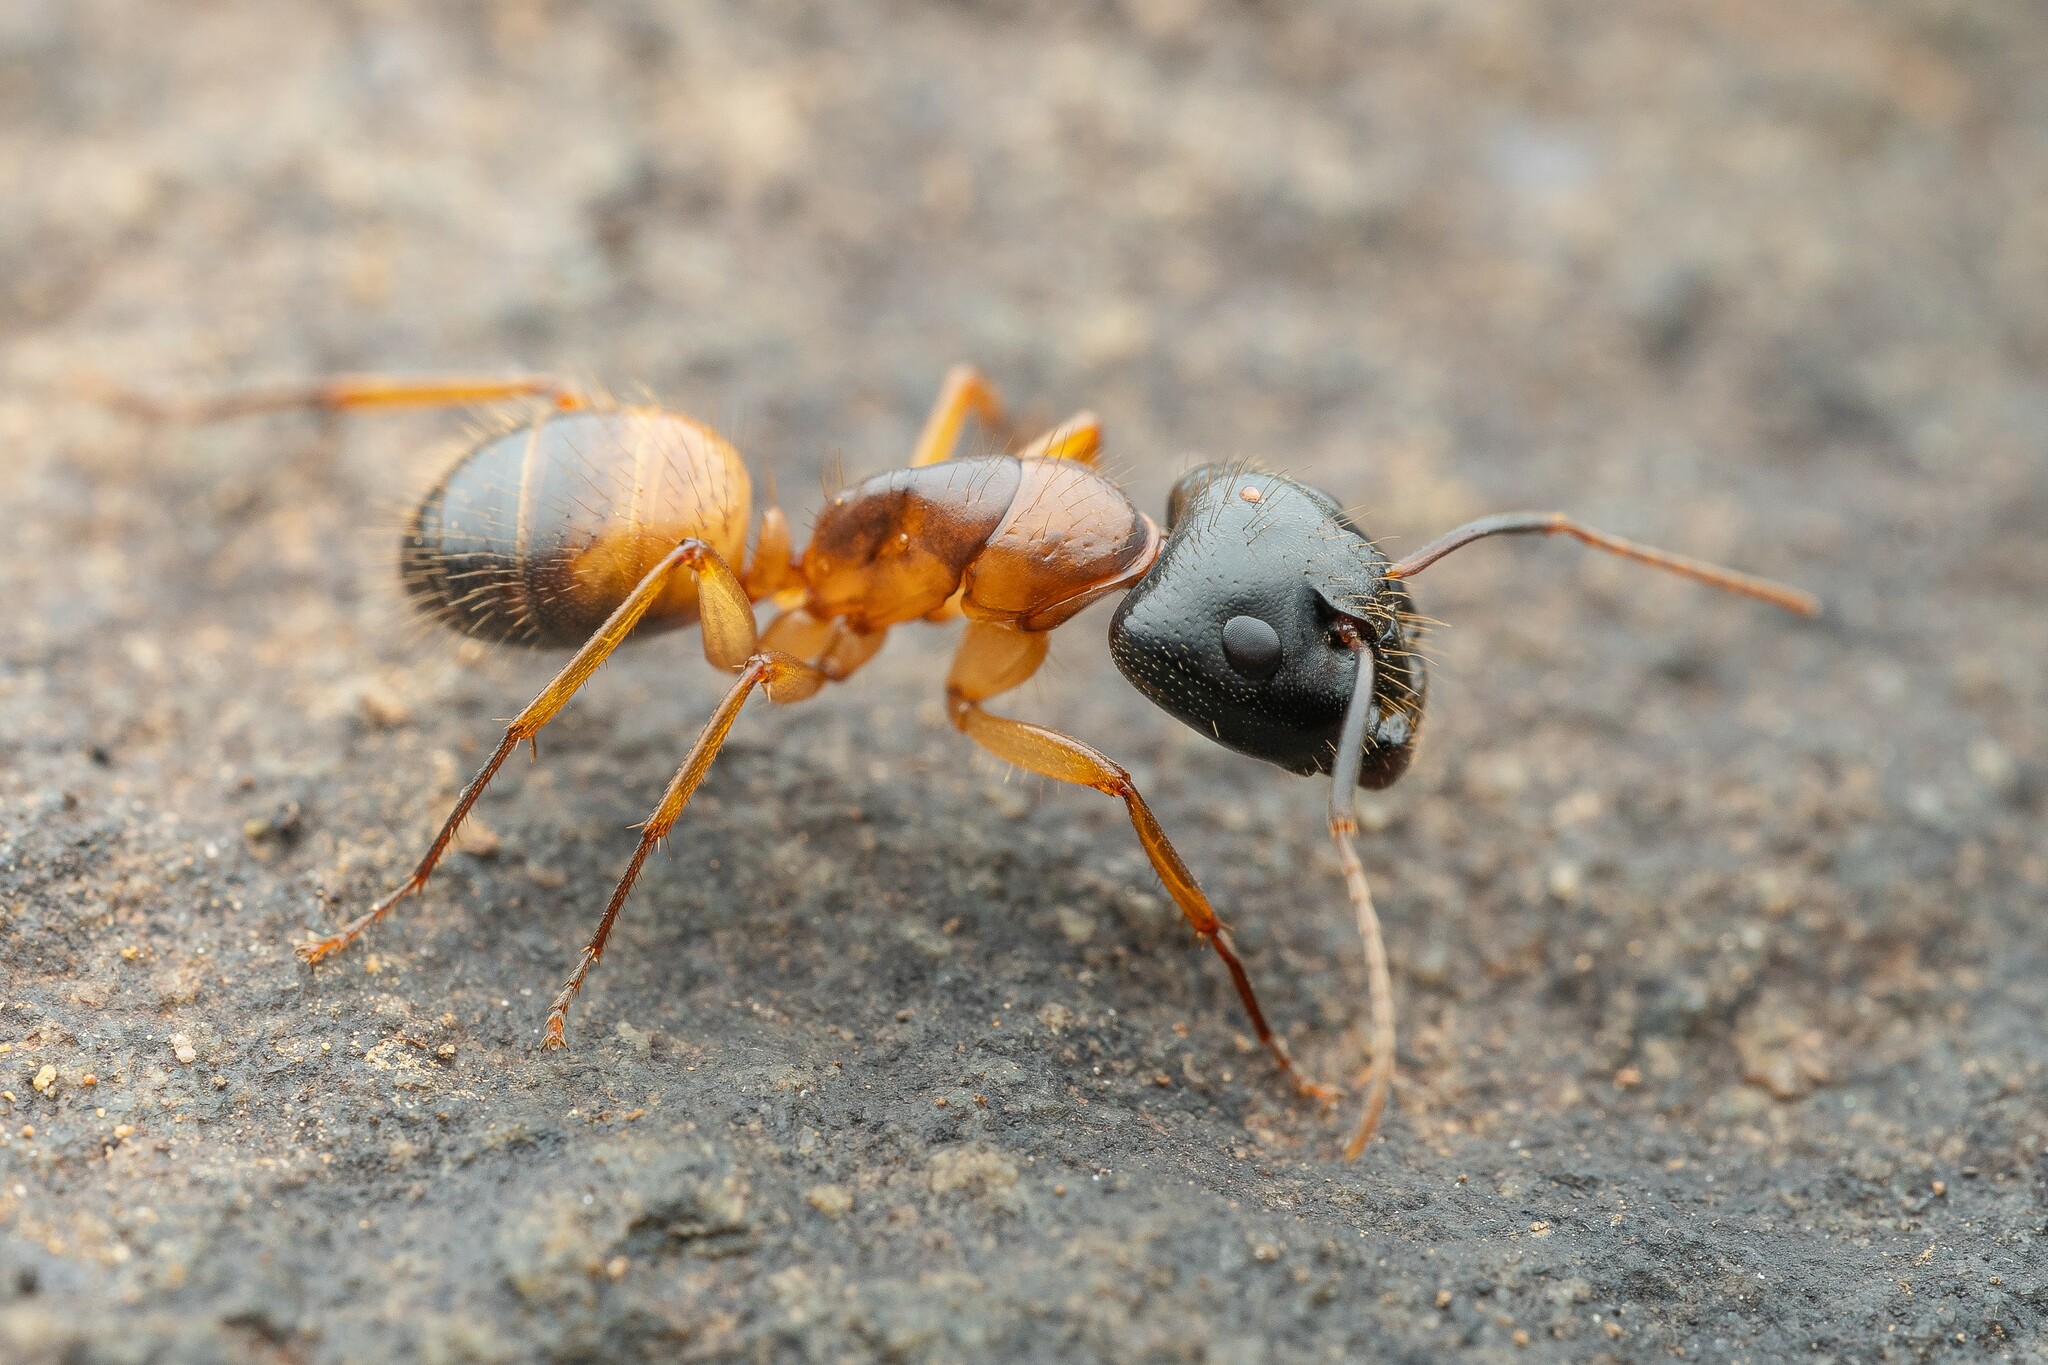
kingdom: Animalia
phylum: Arthropoda
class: Insecta
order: Hymenoptera
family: Formicidae
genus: Camponotus
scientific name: Camponotus sansabeanus
